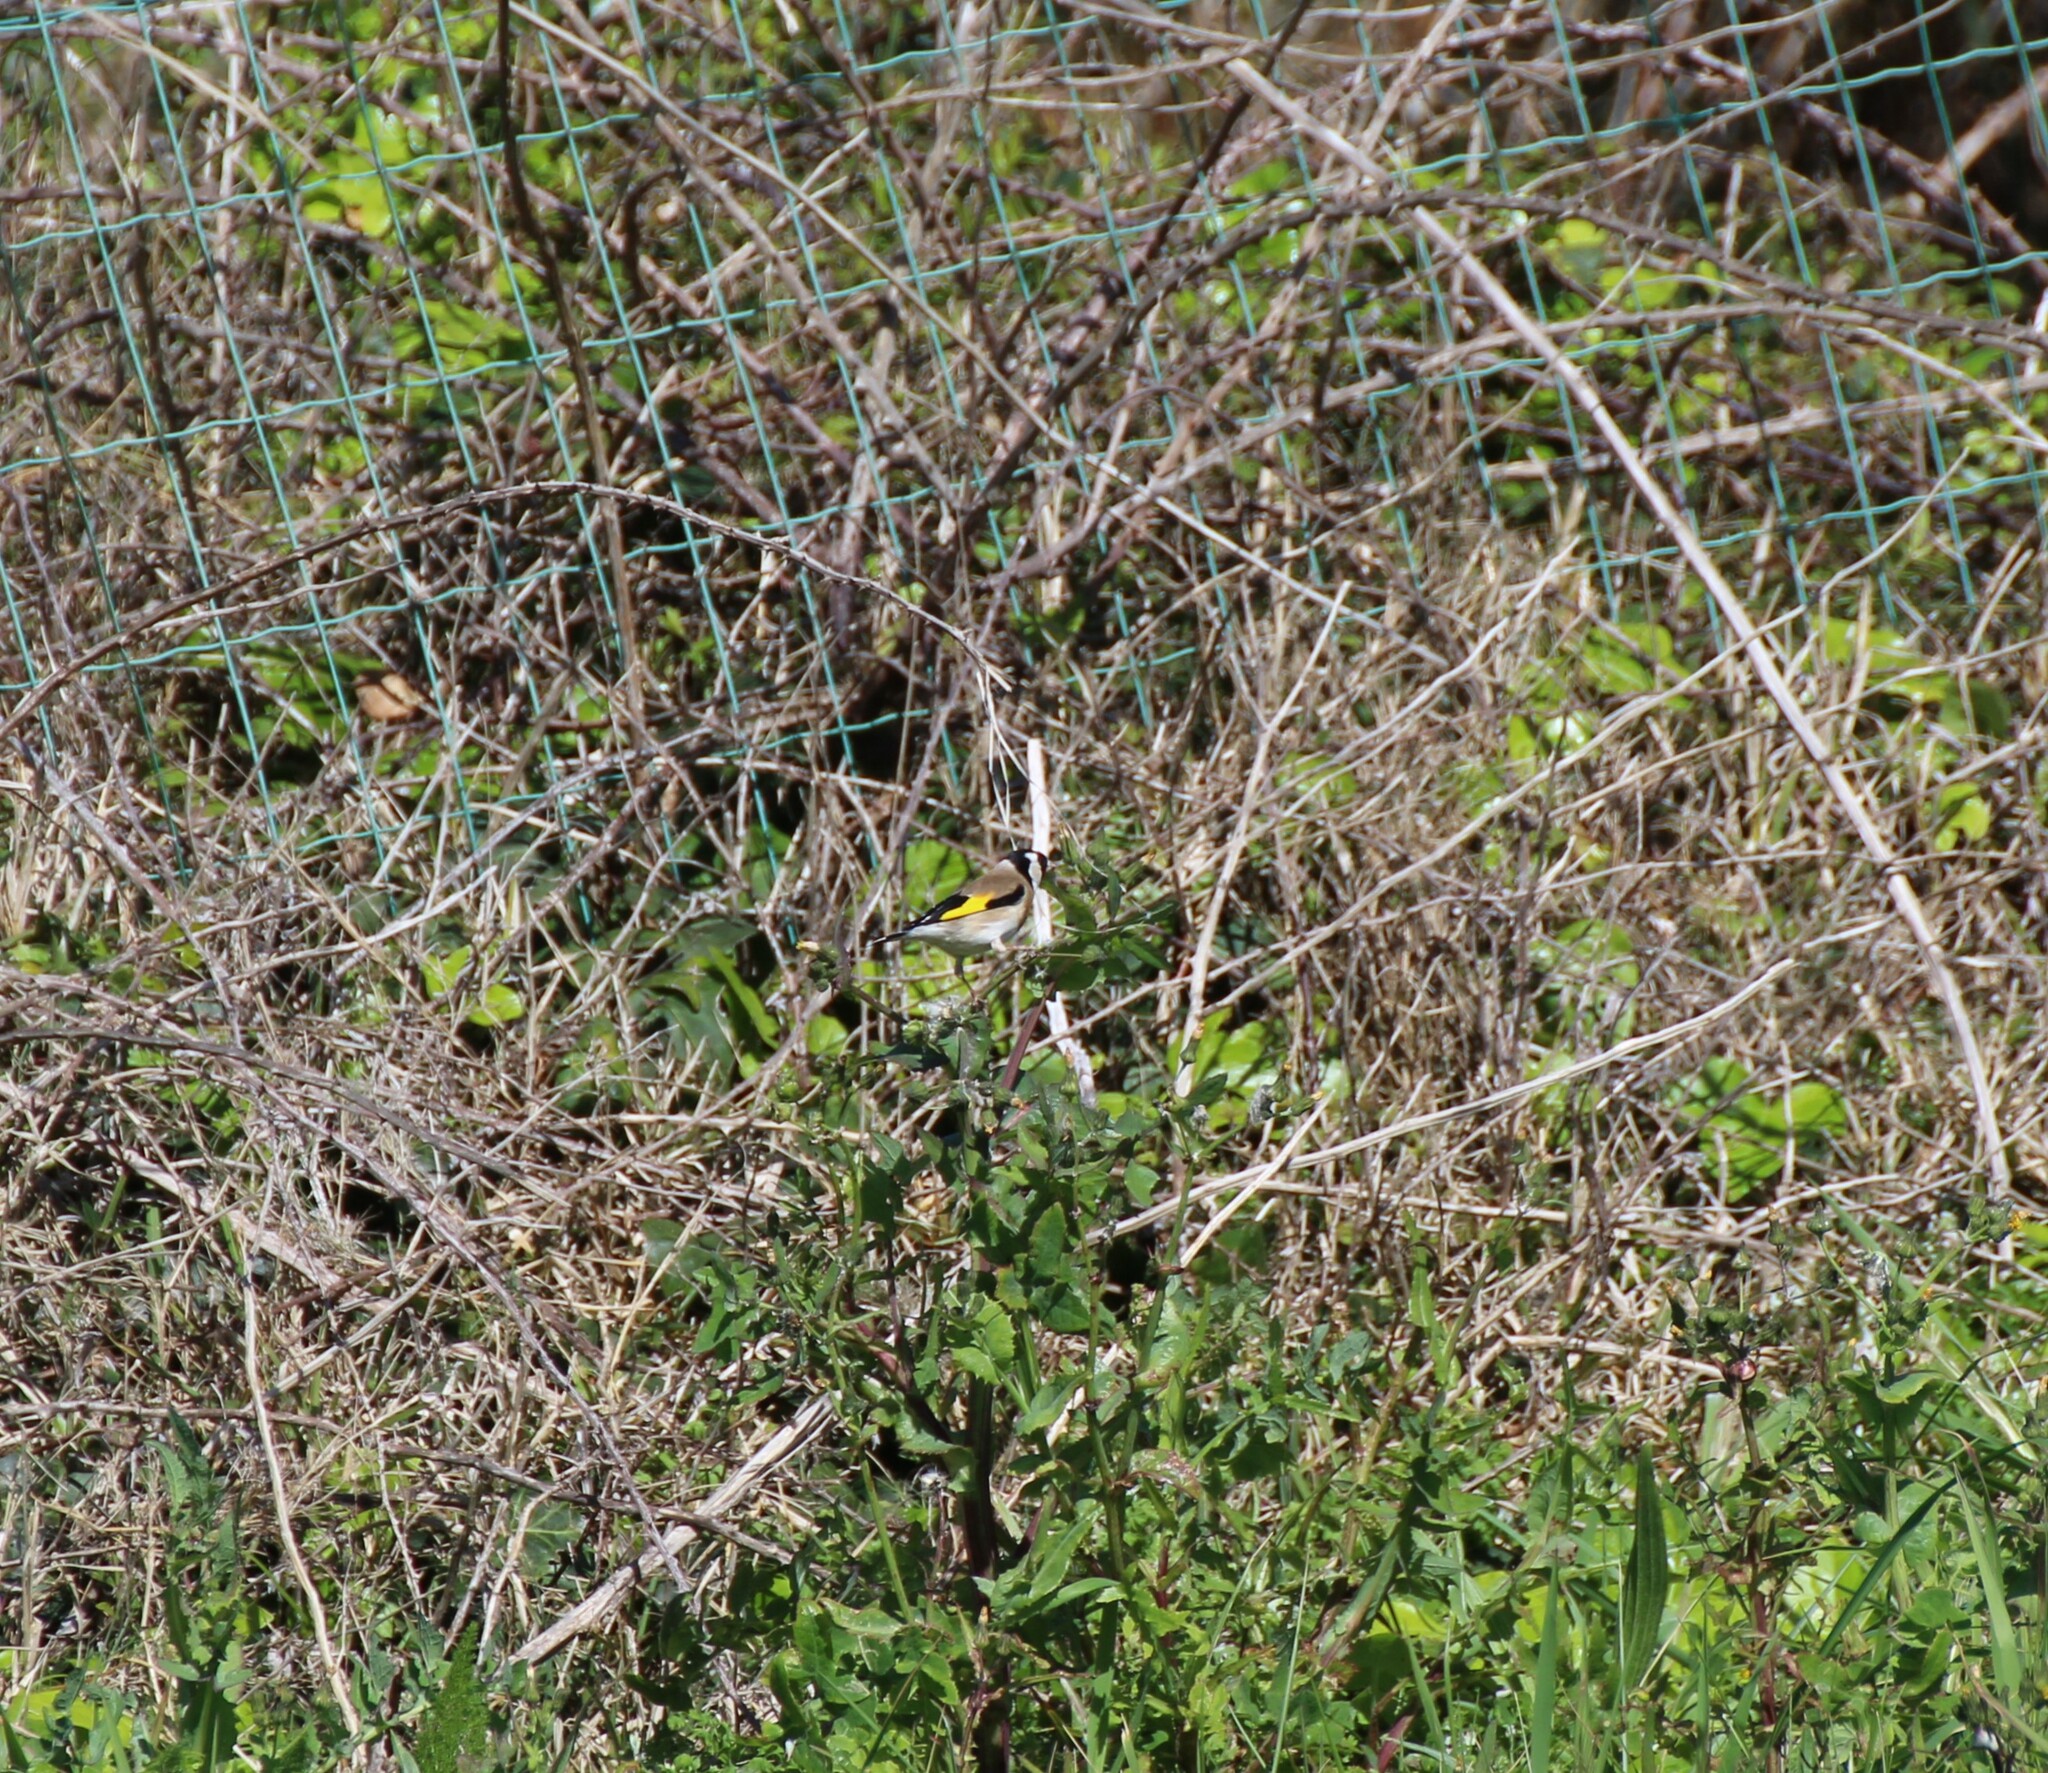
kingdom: Animalia
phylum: Chordata
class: Aves
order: Passeriformes
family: Fringillidae
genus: Carduelis
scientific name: Carduelis carduelis
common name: European goldfinch
